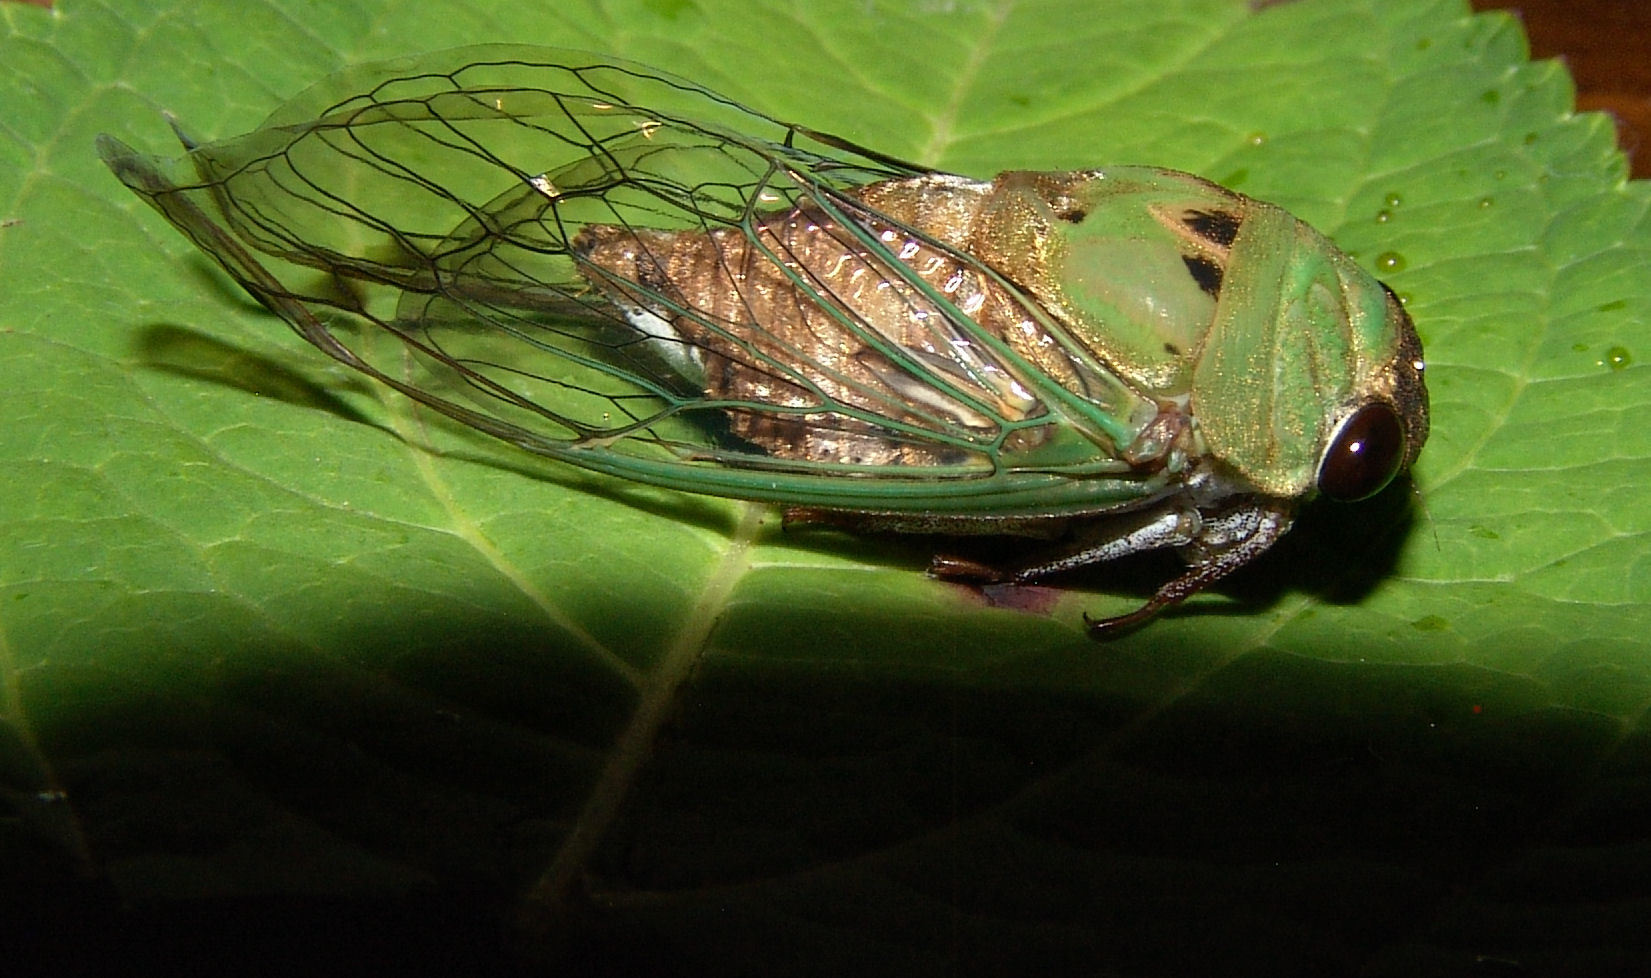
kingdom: Animalia
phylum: Arthropoda
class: Insecta
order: Hemiptera
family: Cicadidae
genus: Neotibicen
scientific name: Neotibicen superbus
